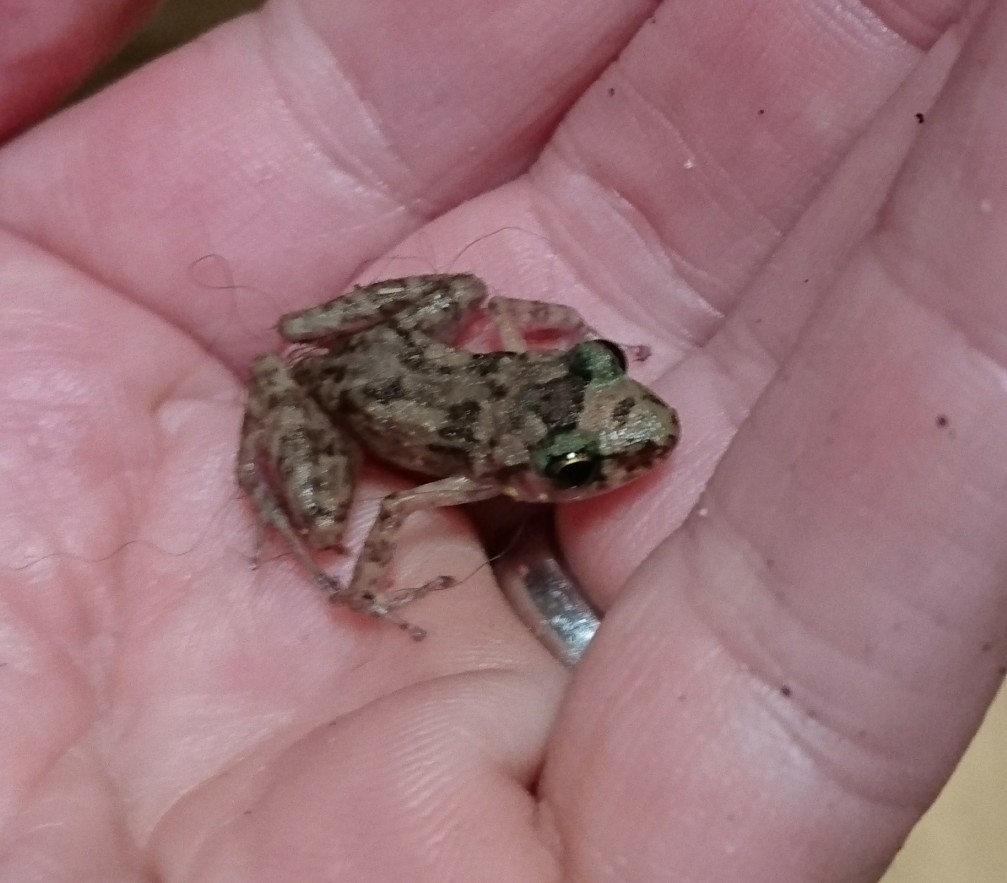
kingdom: Animalia
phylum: Chordata
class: Amphibia
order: Anura
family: Eleutherodactylidae
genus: Eleutherodactylus
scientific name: Eleutherodactylus planirostris
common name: Greenhouse frog
